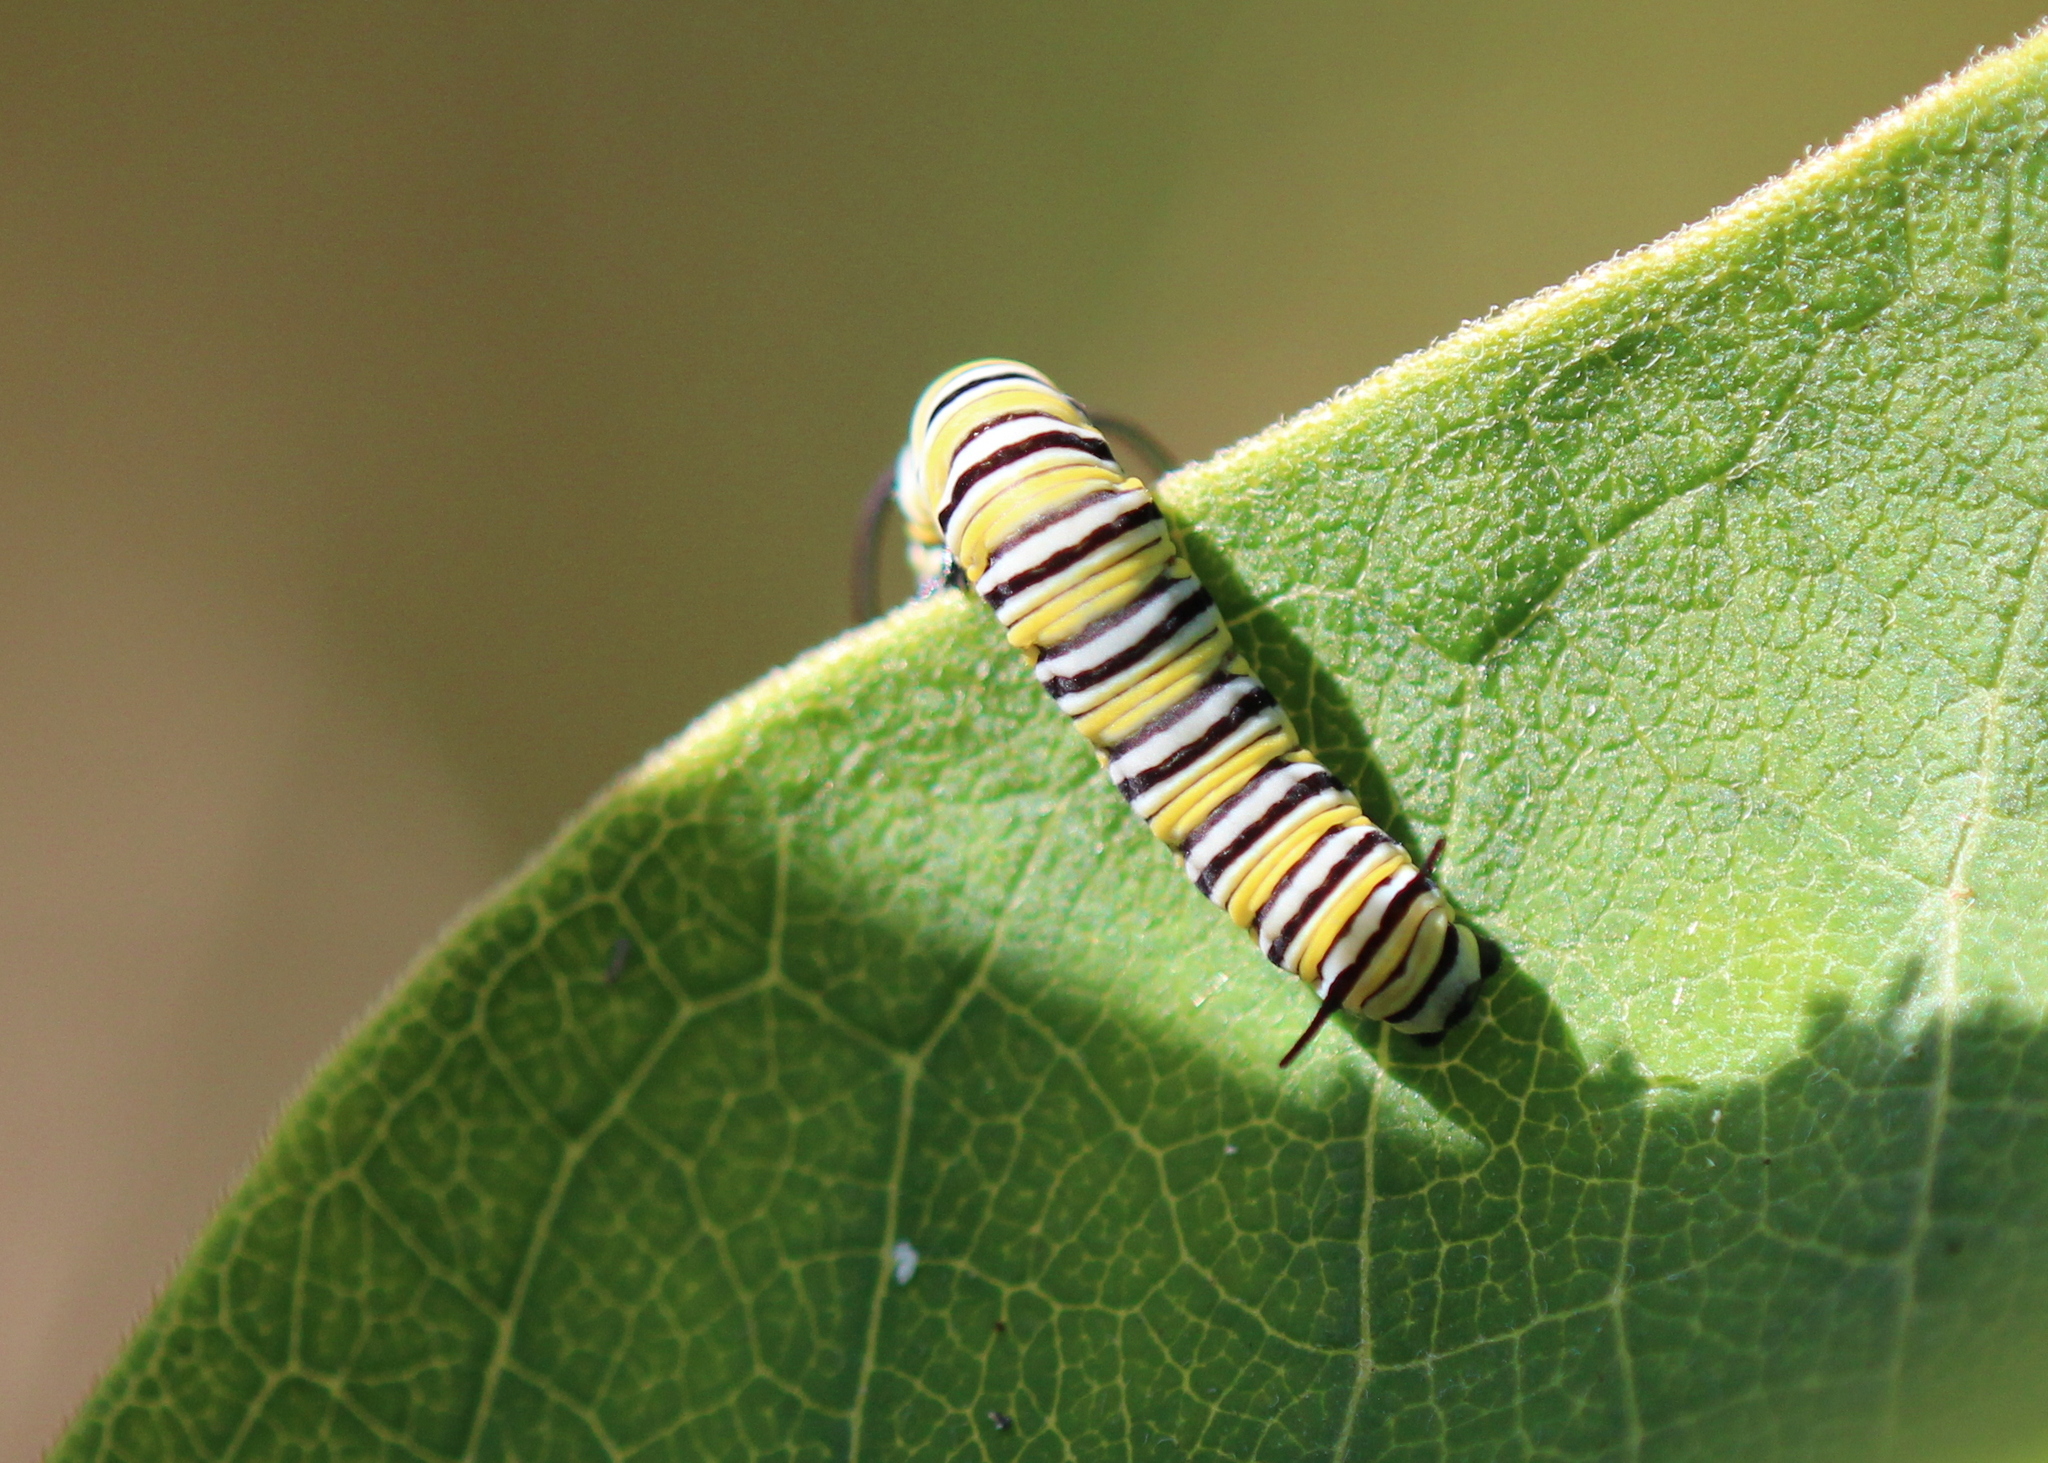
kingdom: Animalia
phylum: Arthropoda
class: Insecta
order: Lepidoptera
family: Nymphalidae
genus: Danaus
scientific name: Danaus plexippus
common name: Monarch
